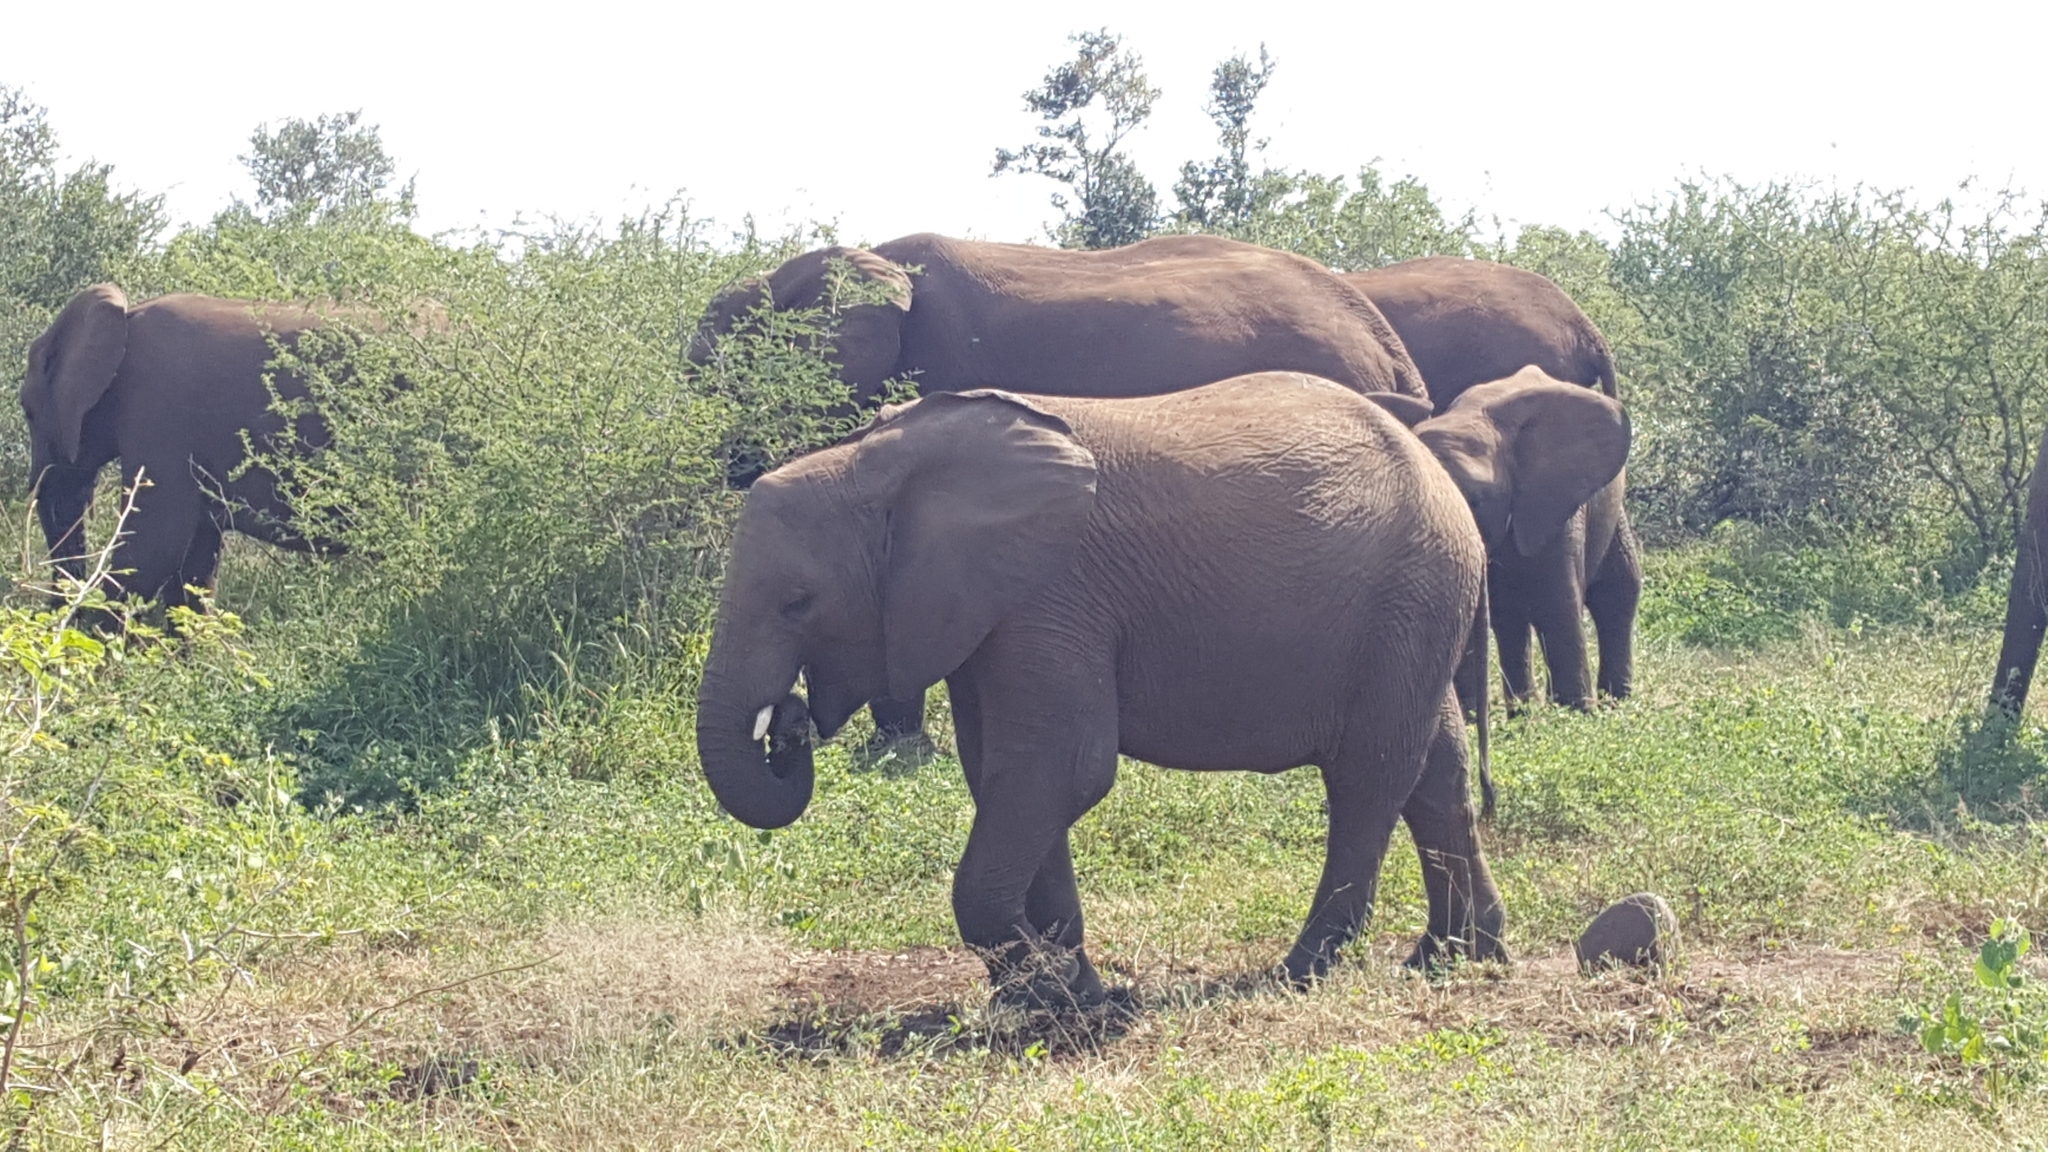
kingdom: Animalia
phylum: Chordata
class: Mammalia
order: Proboscidea
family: Elephantidae
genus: Loxodonta
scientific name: Loxodonta africana
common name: African elephant
